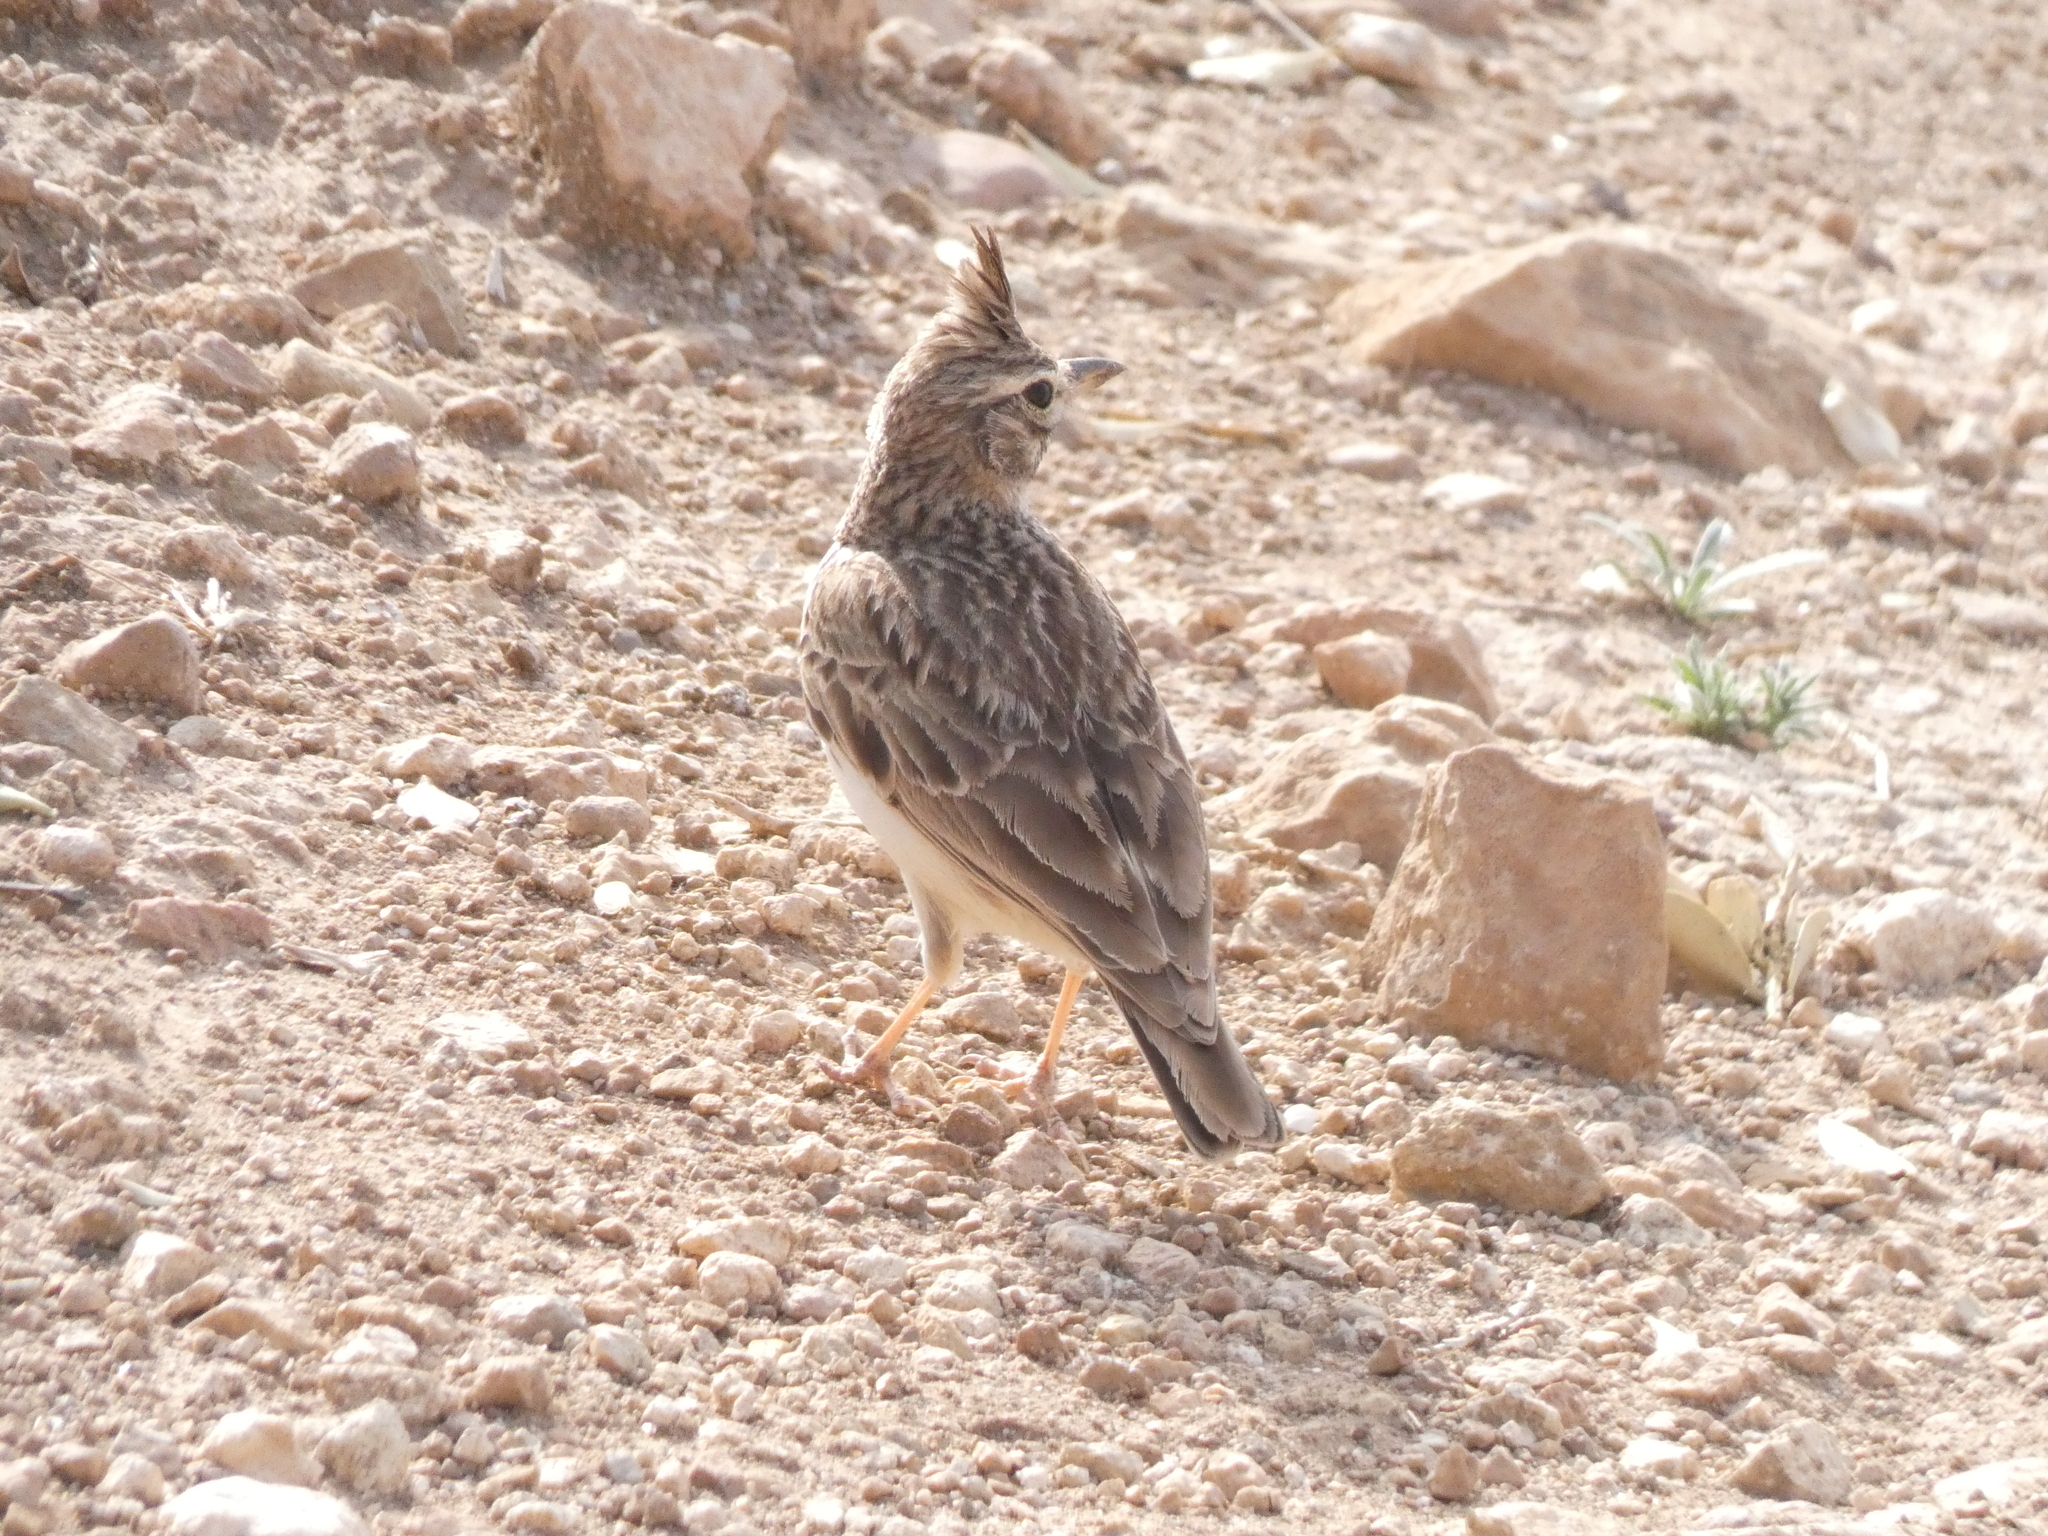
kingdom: Animalia
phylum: Chordata
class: Aves
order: Passeriformes
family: Alaudidae
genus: Galerida
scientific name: Galerida theklae
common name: Thekla lark
